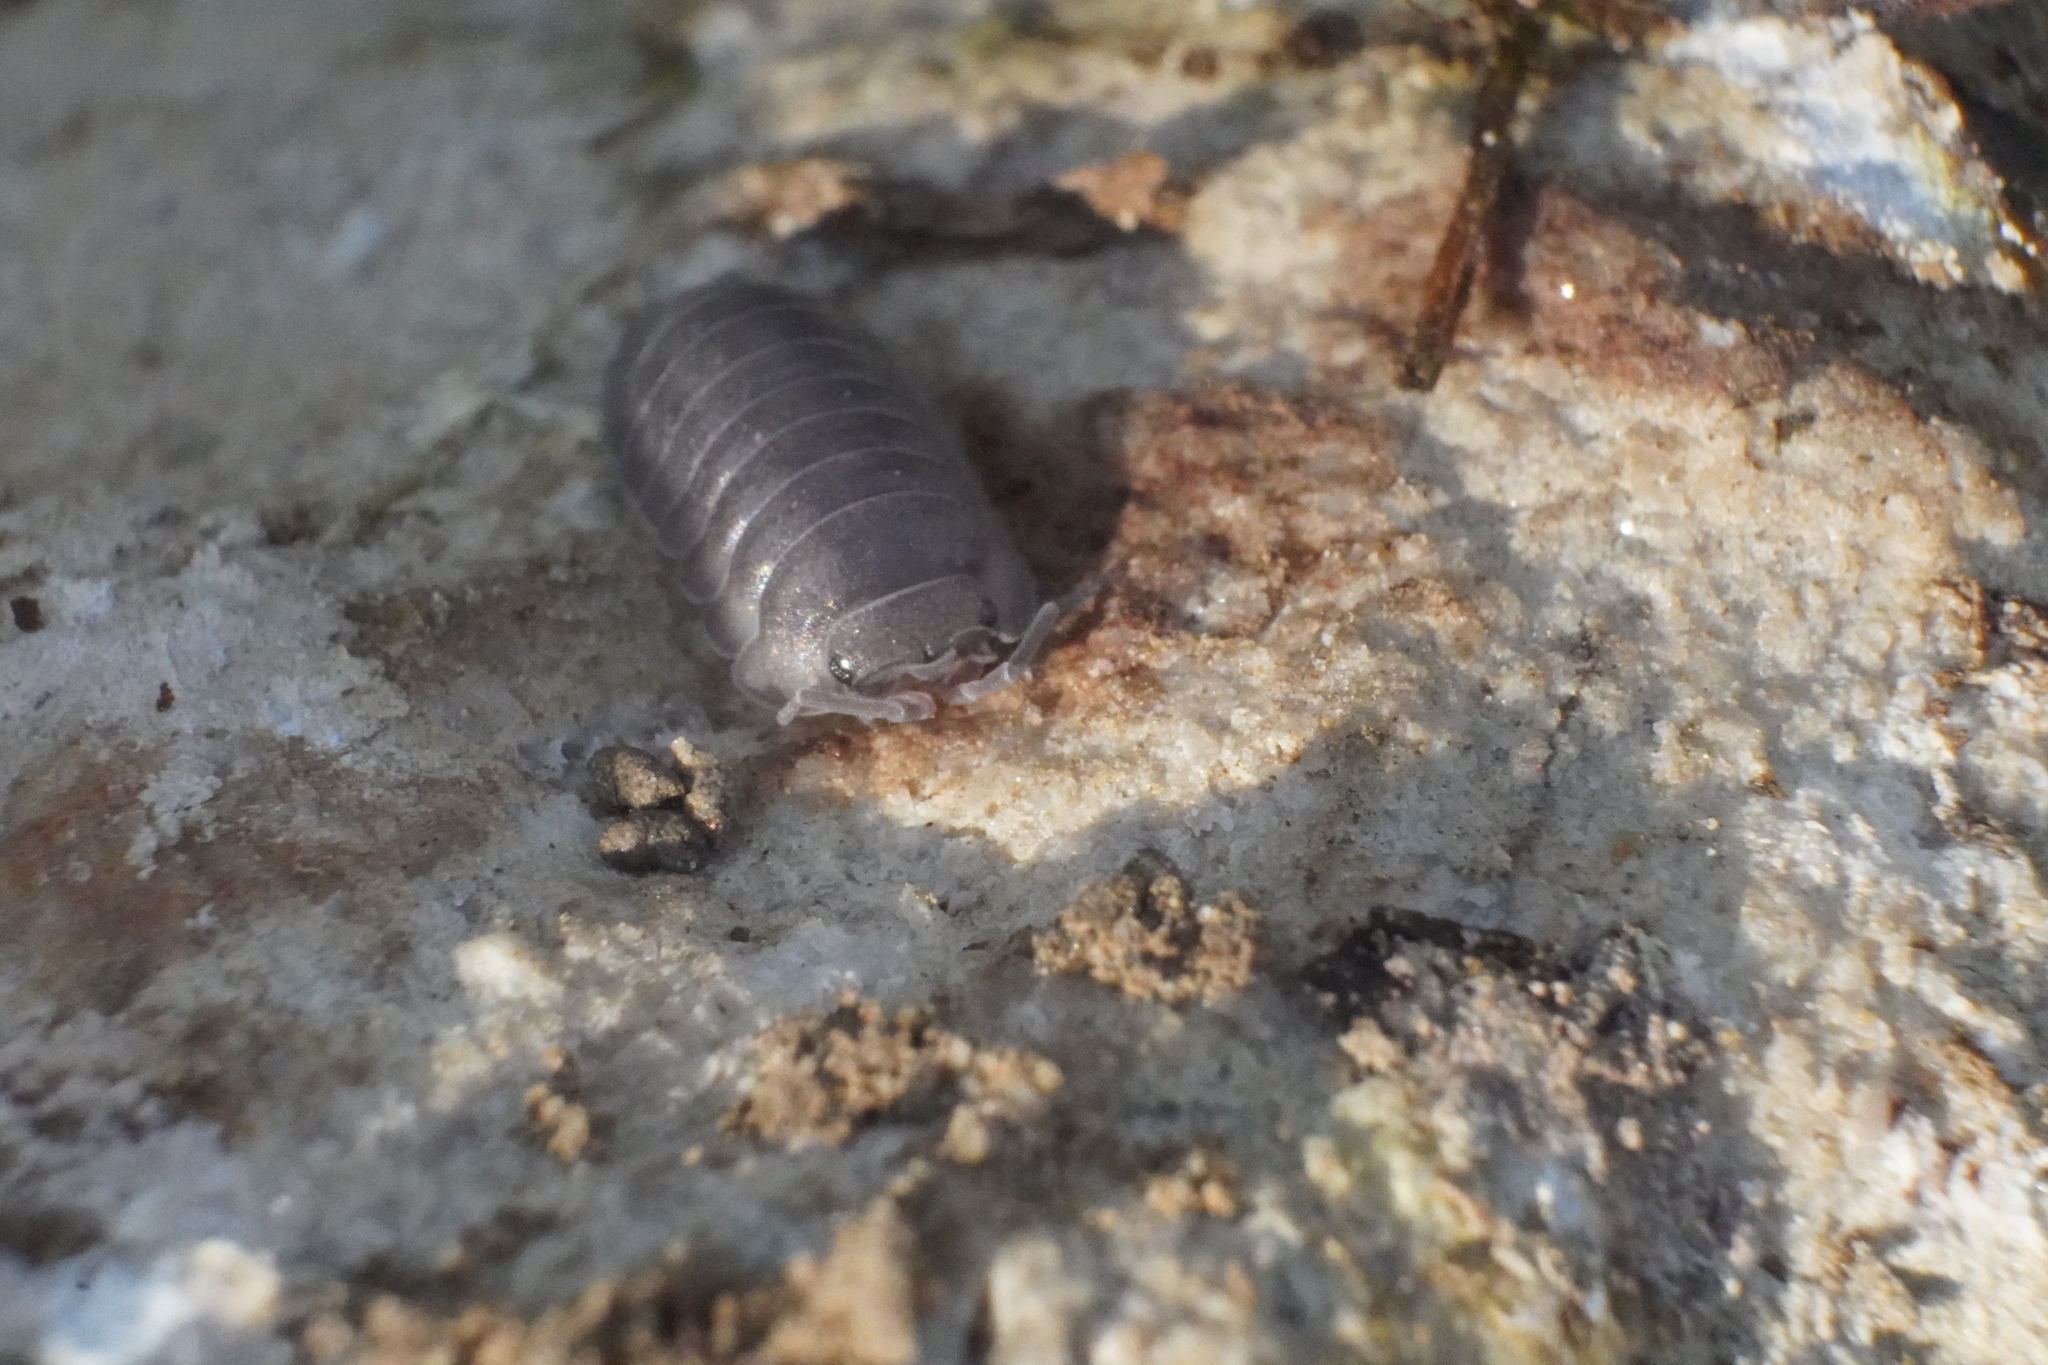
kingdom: Animalia
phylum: Arthropoda
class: Malacostraca
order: Isopoda
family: Armadillidiidae
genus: Armadillidium
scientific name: Armadillidium nasatum
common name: Isopod
